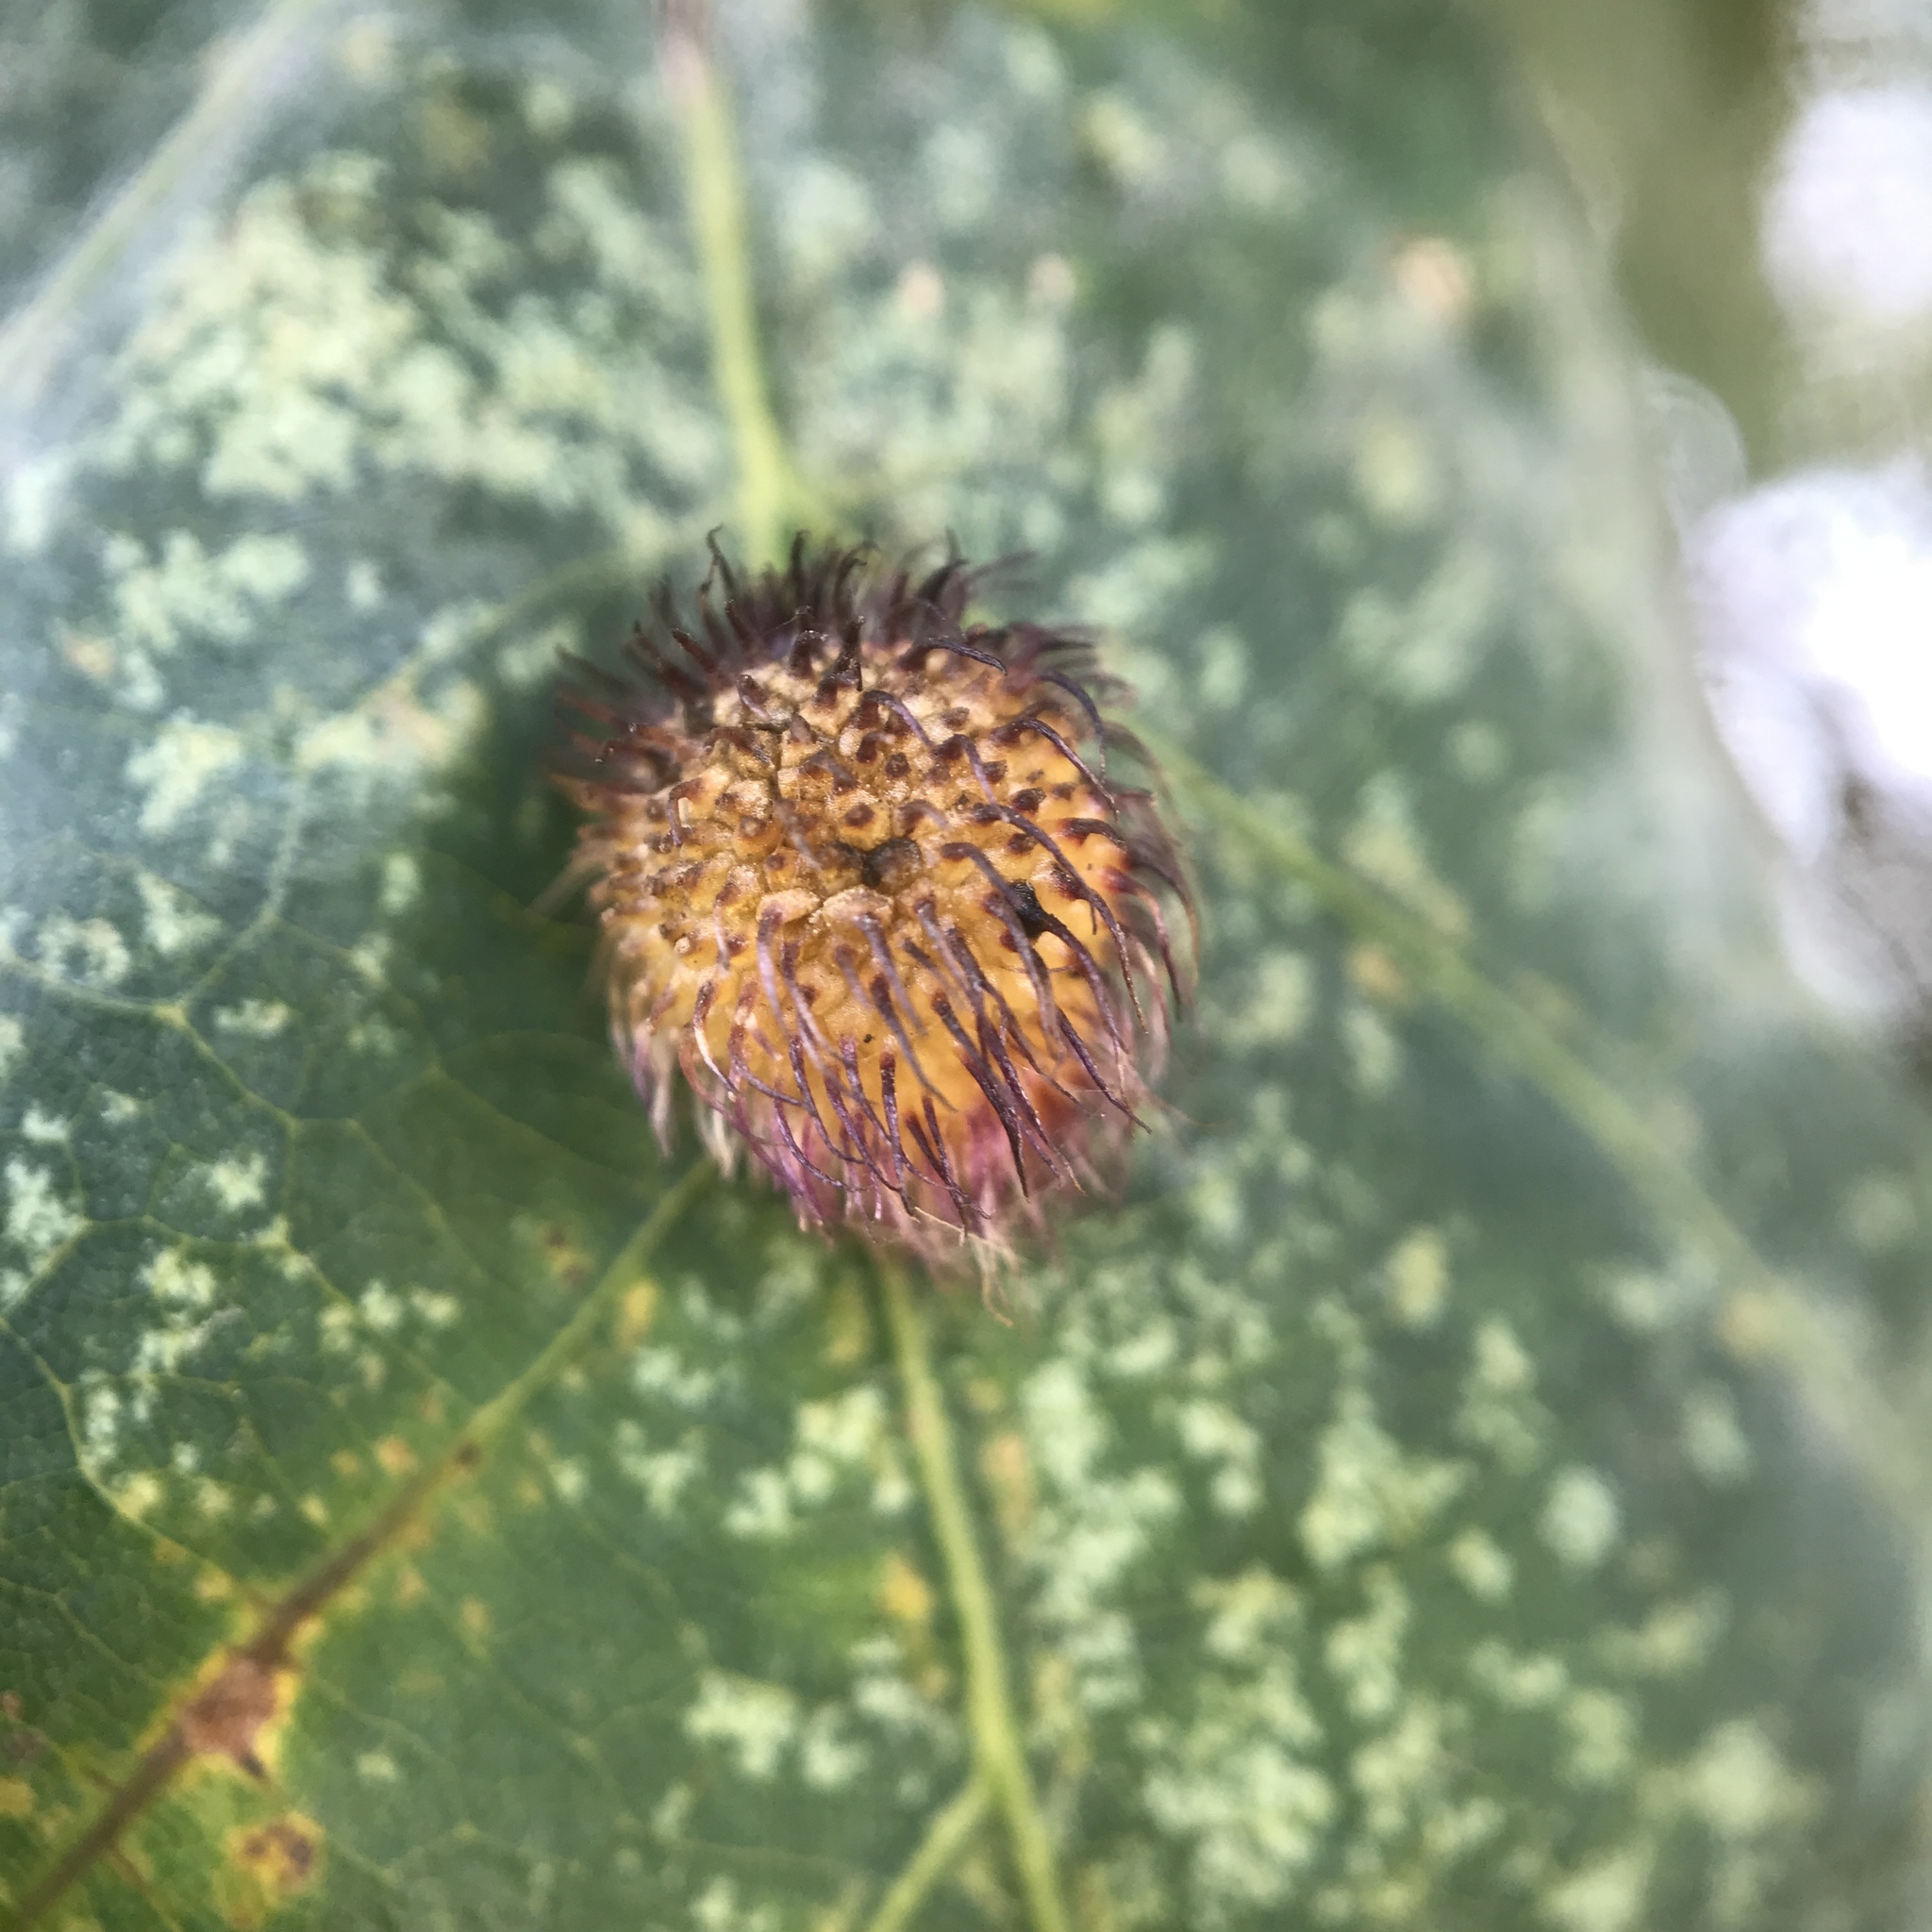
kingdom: Animalia
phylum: Arthropoda
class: Insecta
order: Hymenoptera
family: Cynipidae
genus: Acraspis
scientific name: Acraspis erinacei
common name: Hedgehog gall wasp
